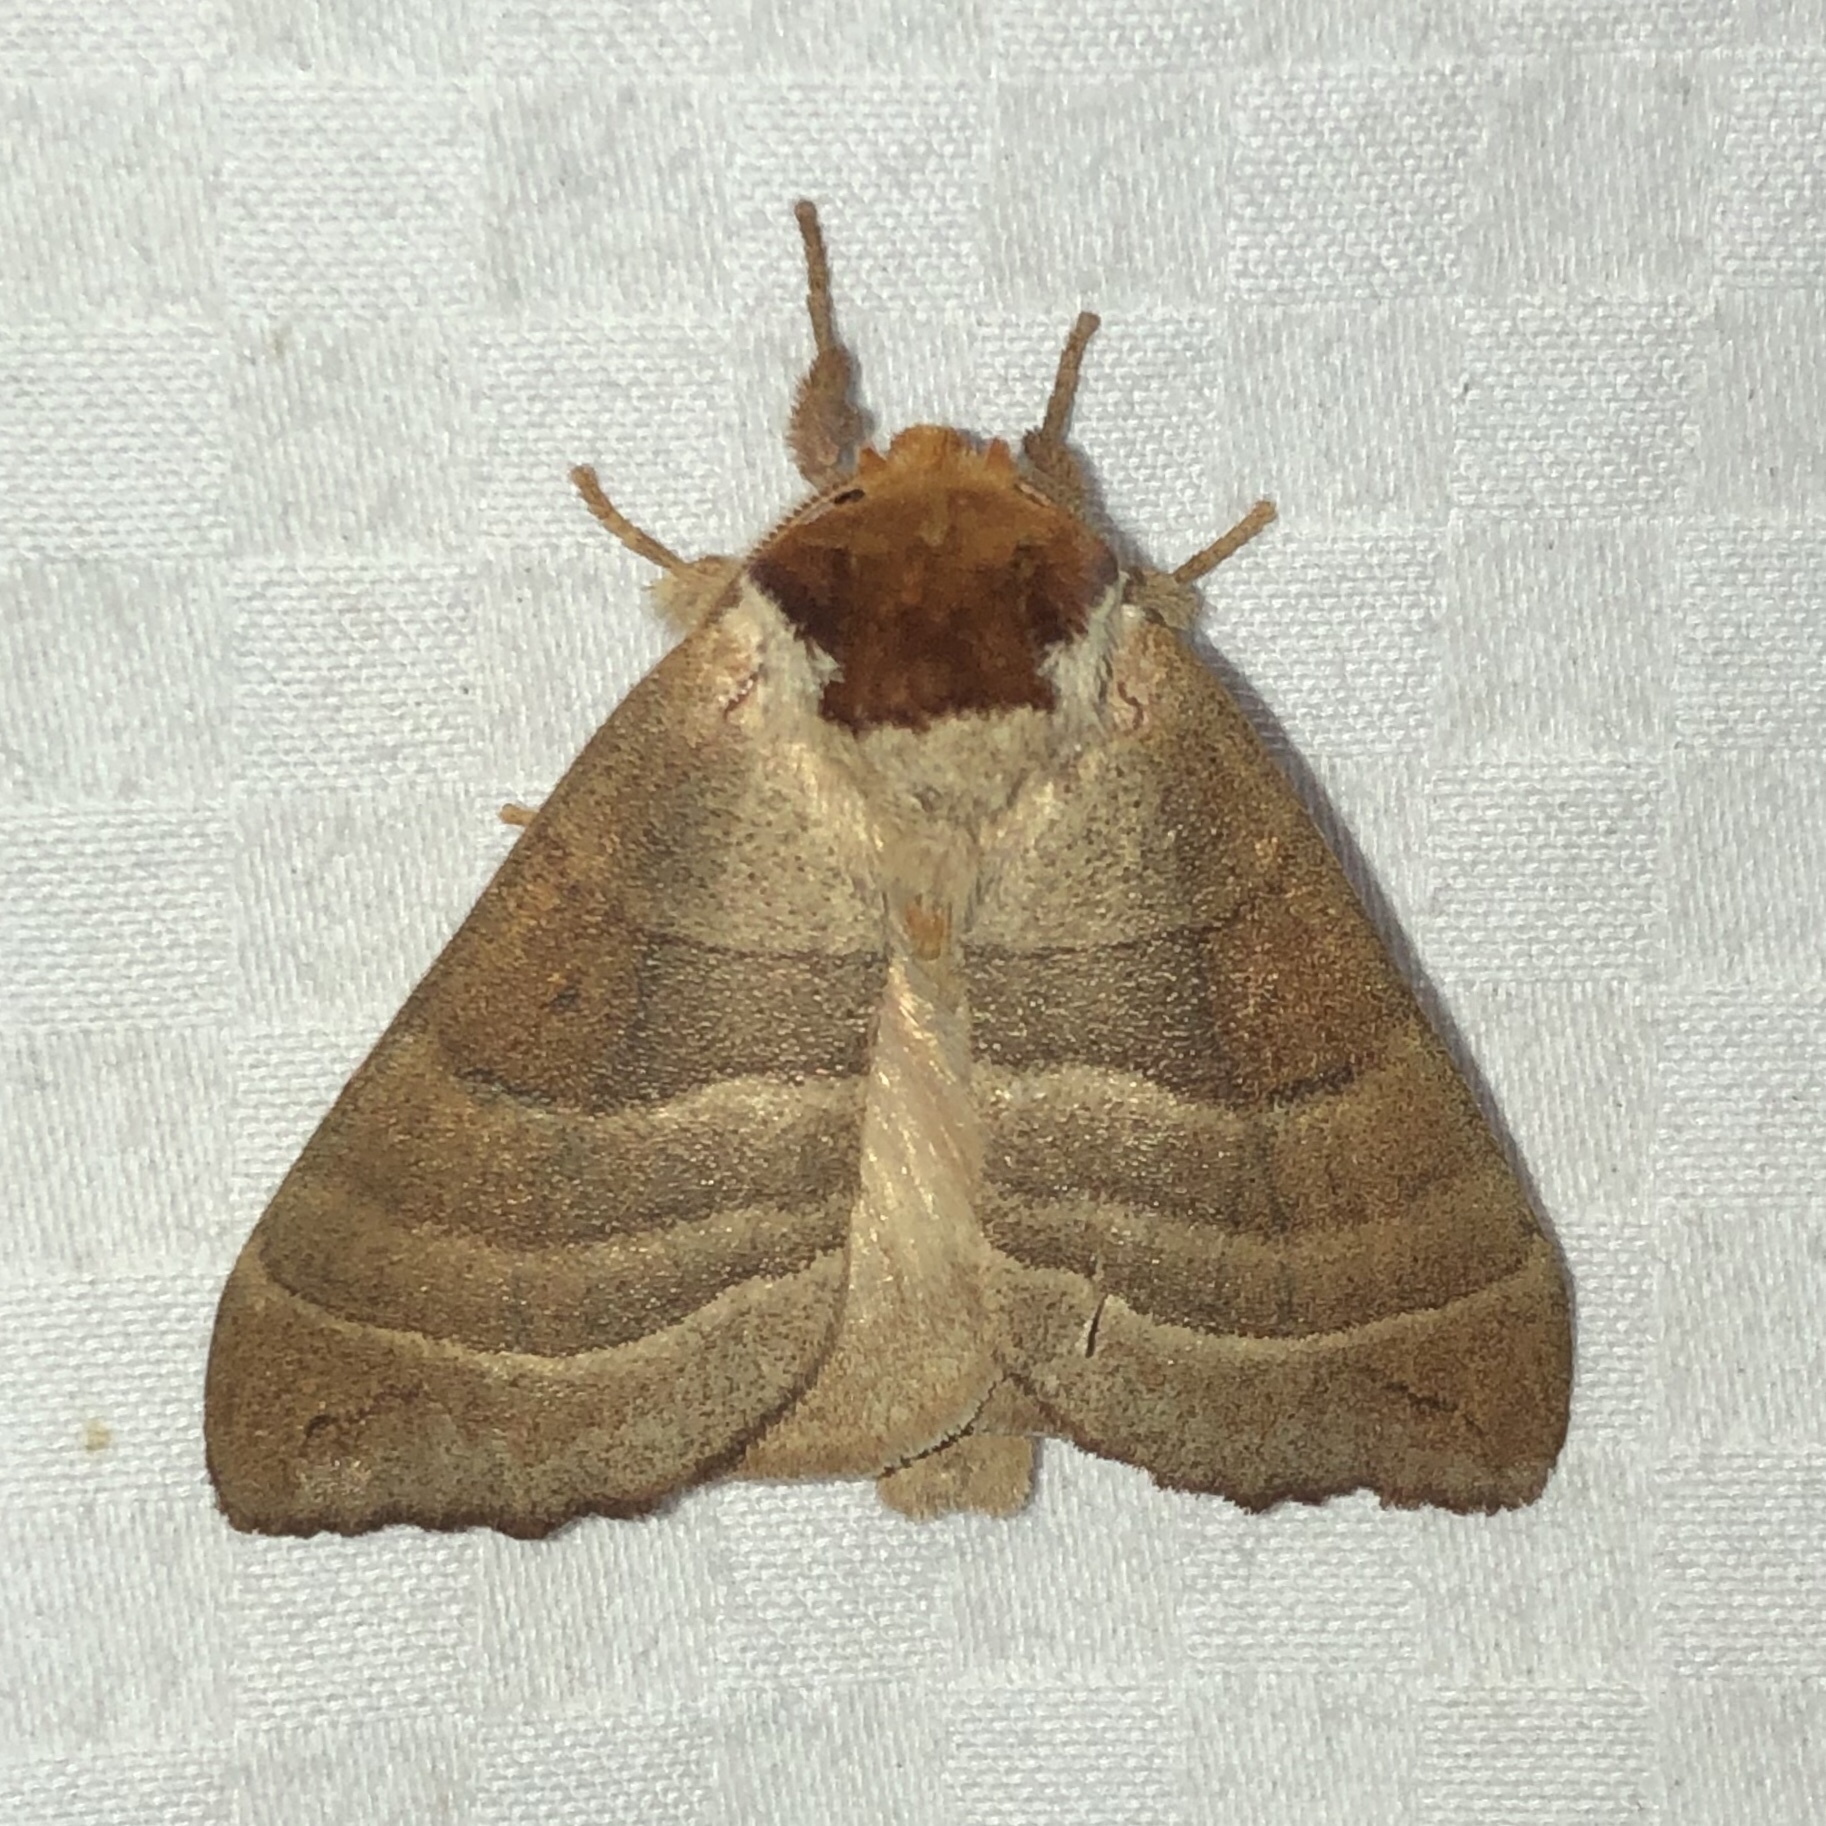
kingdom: Animalia
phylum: Arthropoda
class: Insecta
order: Lepidoptera
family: Notodontidae
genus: Datana
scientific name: Datana integerrima
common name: Walnut caterpillar
